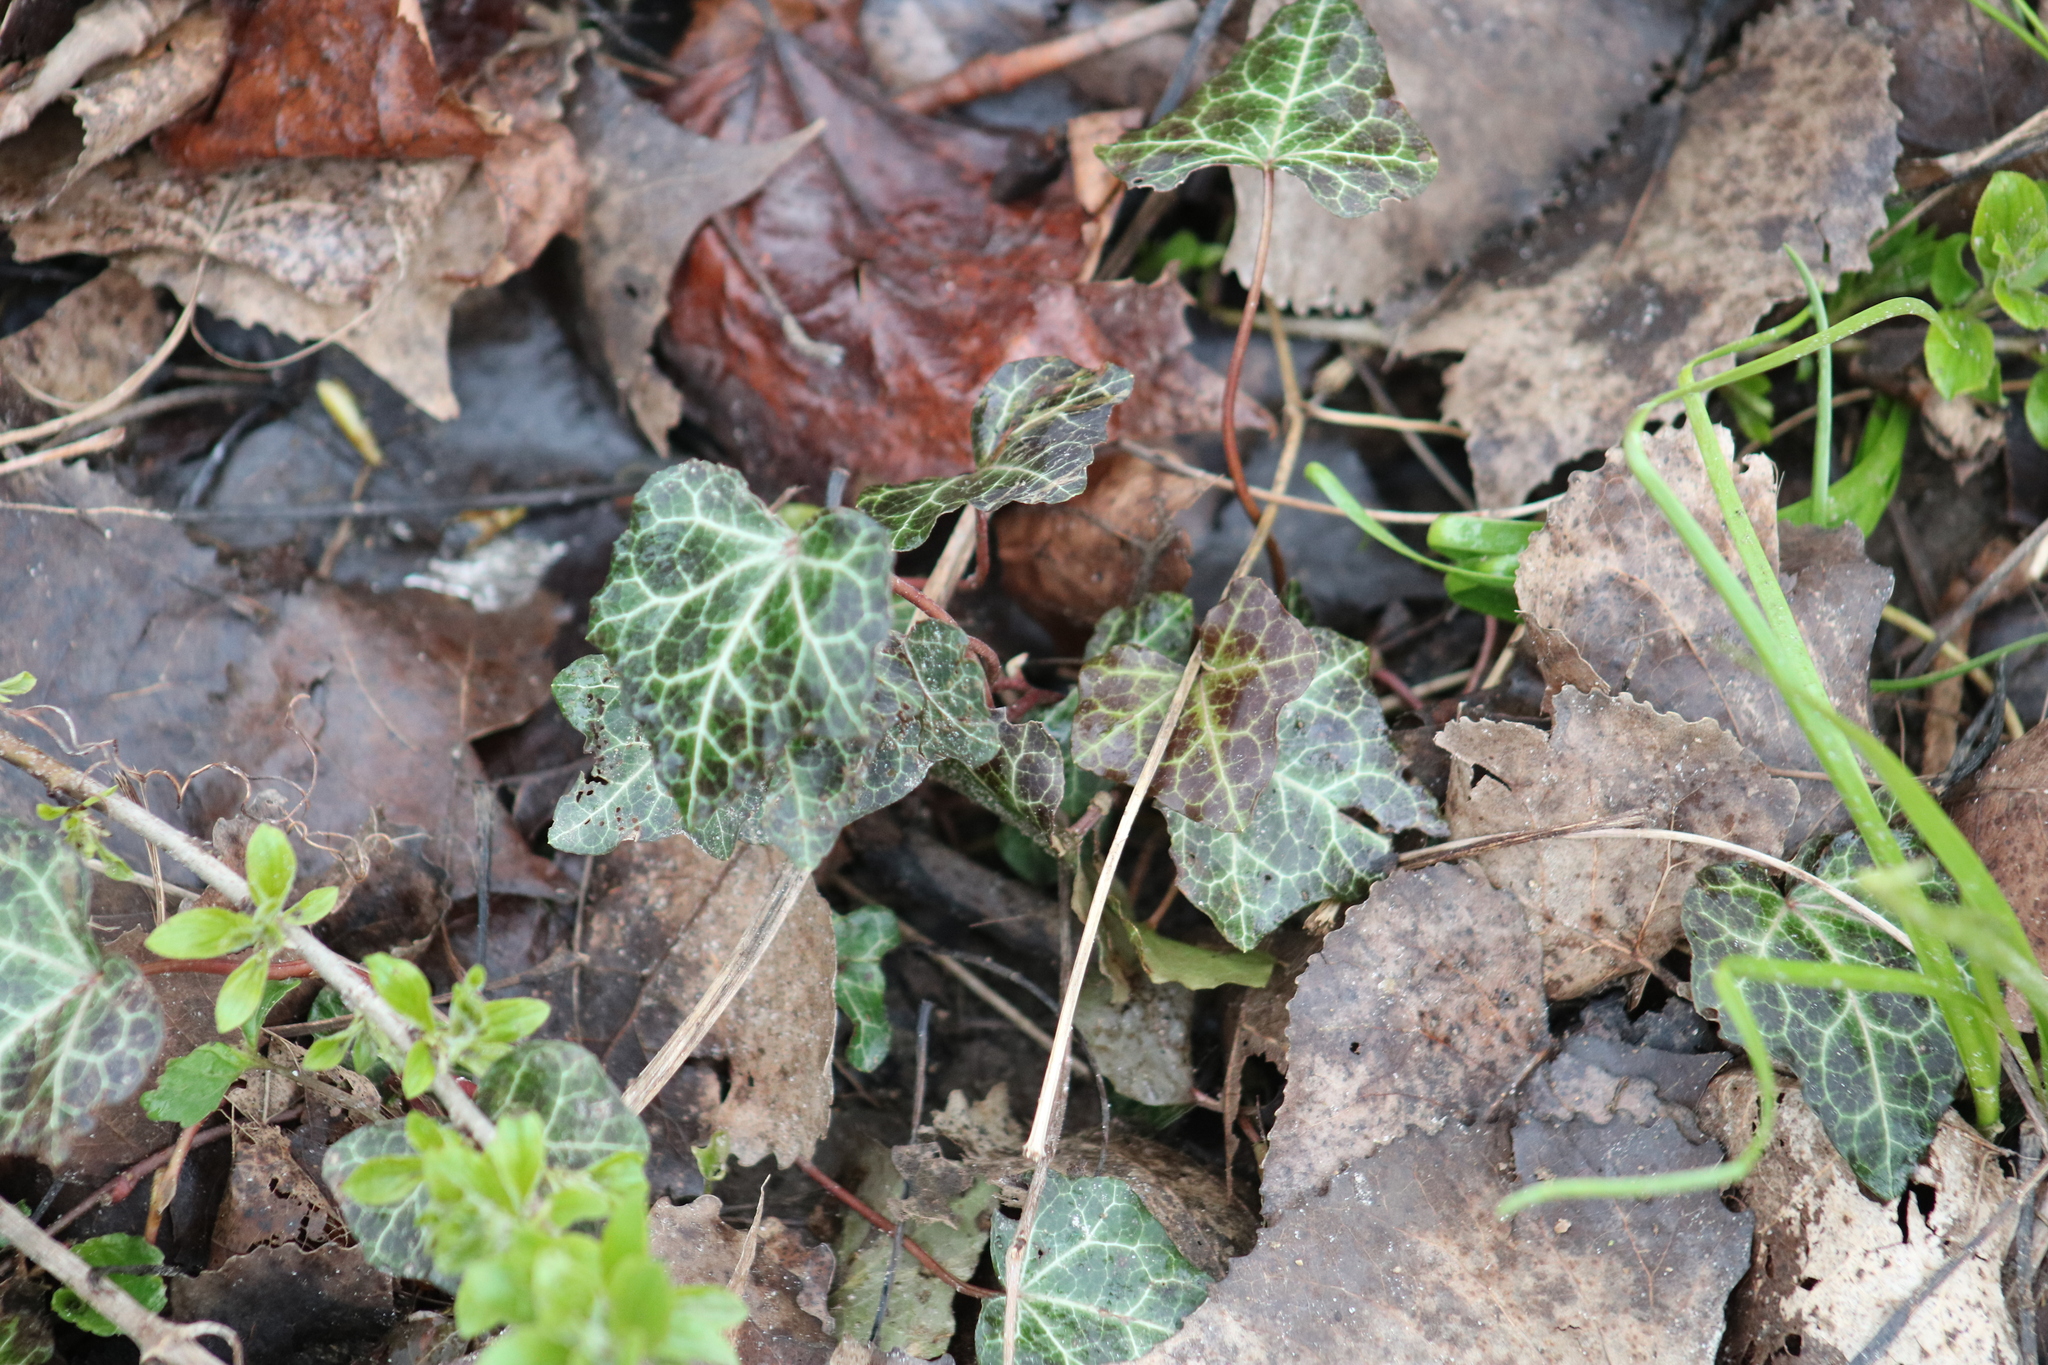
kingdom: Plantae
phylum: Tracheophyta
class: Magnoliopsida
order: Apiales
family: Araliaceae
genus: Hedera
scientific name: Hedera helix
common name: Ivy
